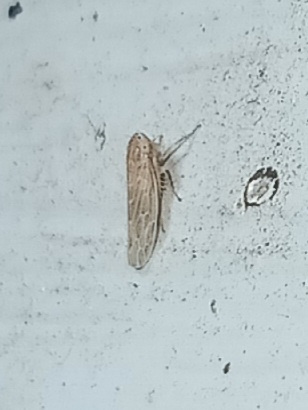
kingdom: Animalia
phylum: Arthropoda
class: Insecta
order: Hemiptera
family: Cicadellidae
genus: Graminella
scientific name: Graminella sonora
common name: Lesser lawn leafhopper
